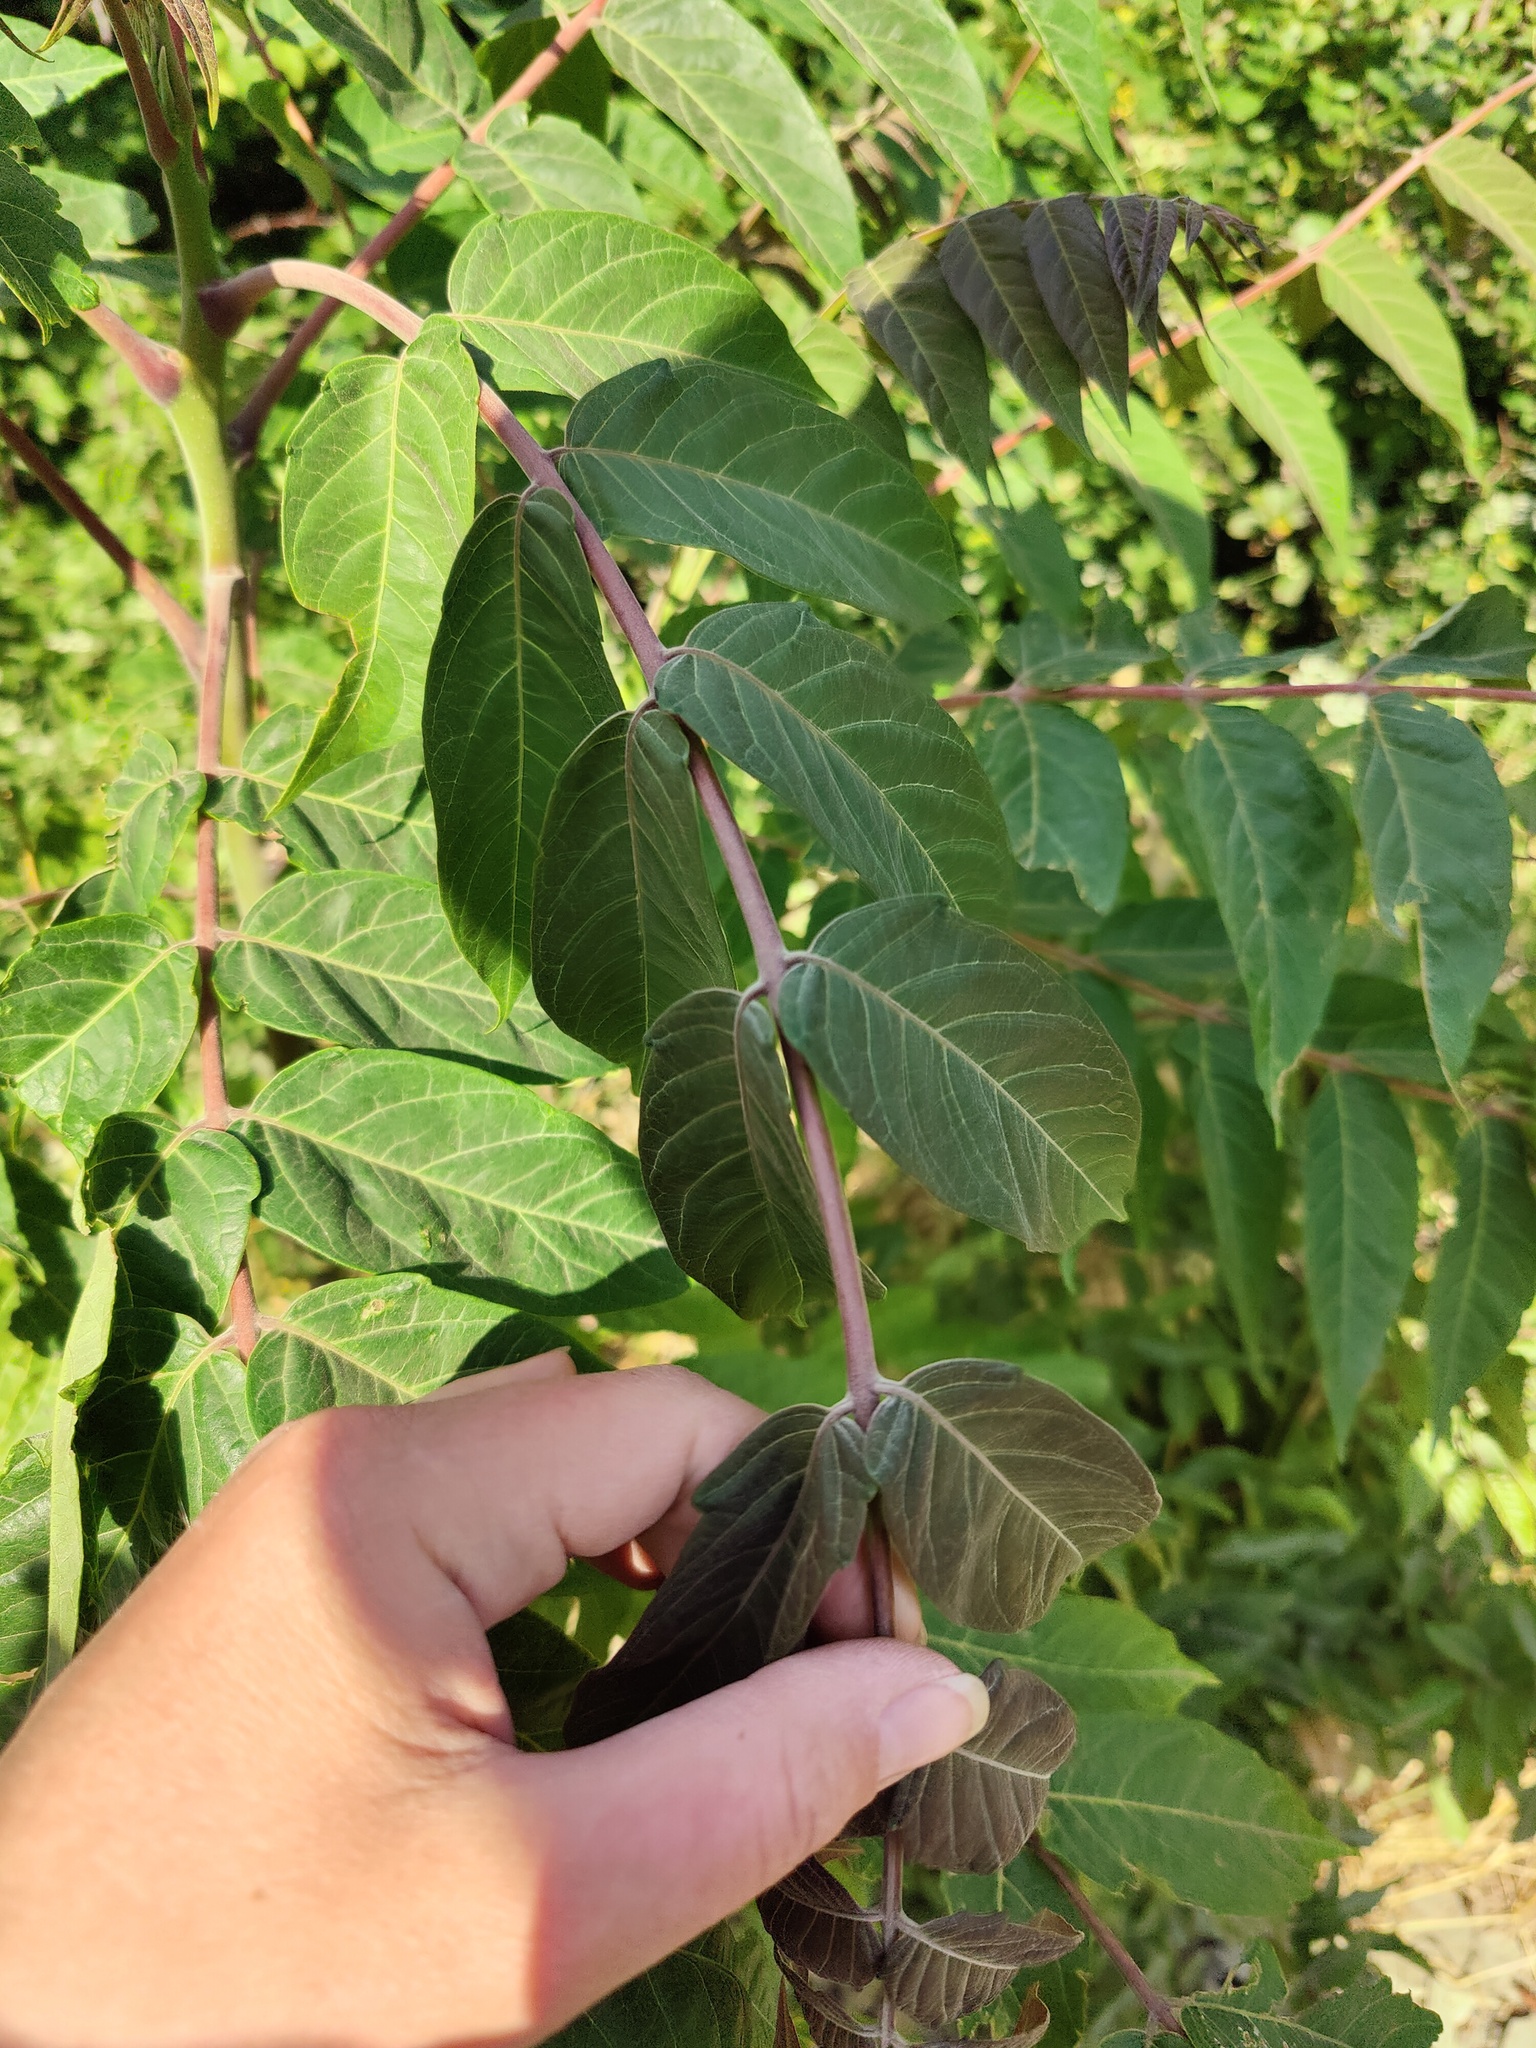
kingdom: Plantae
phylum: Tracheophyta
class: Magnoliopsida
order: Sapindales
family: Simaroubaceae
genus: Ailanthus
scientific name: Ailanthus altissima
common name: Tree-of-heaven
